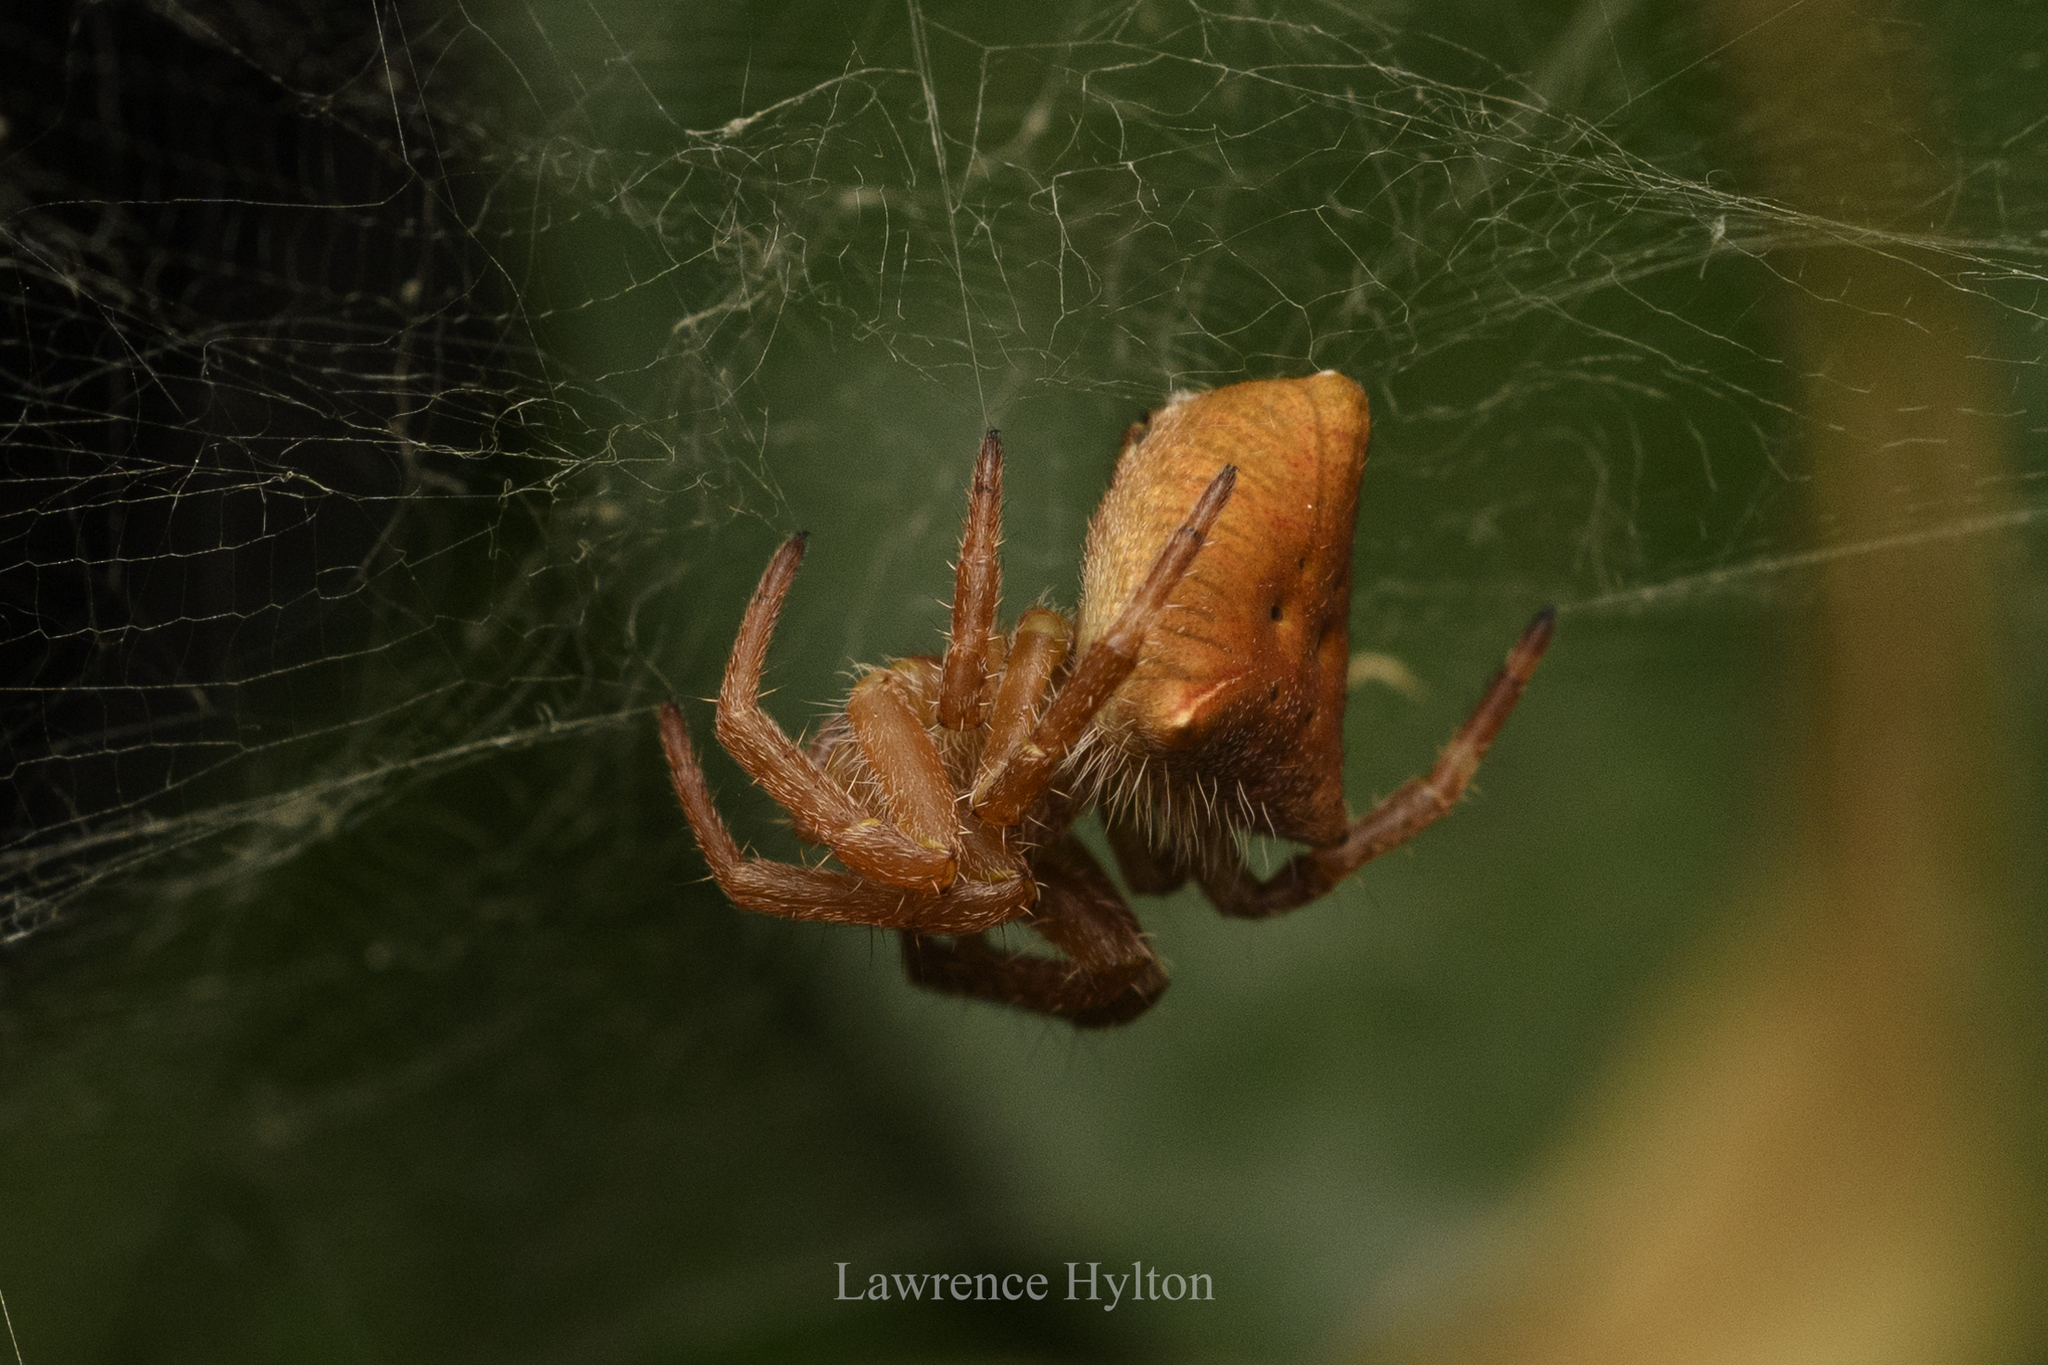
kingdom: Animalia
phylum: Arthropoda
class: Arachnida
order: Araneae
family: Araneidae
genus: Cyrtophora
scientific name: Cyrtophora unicolor
